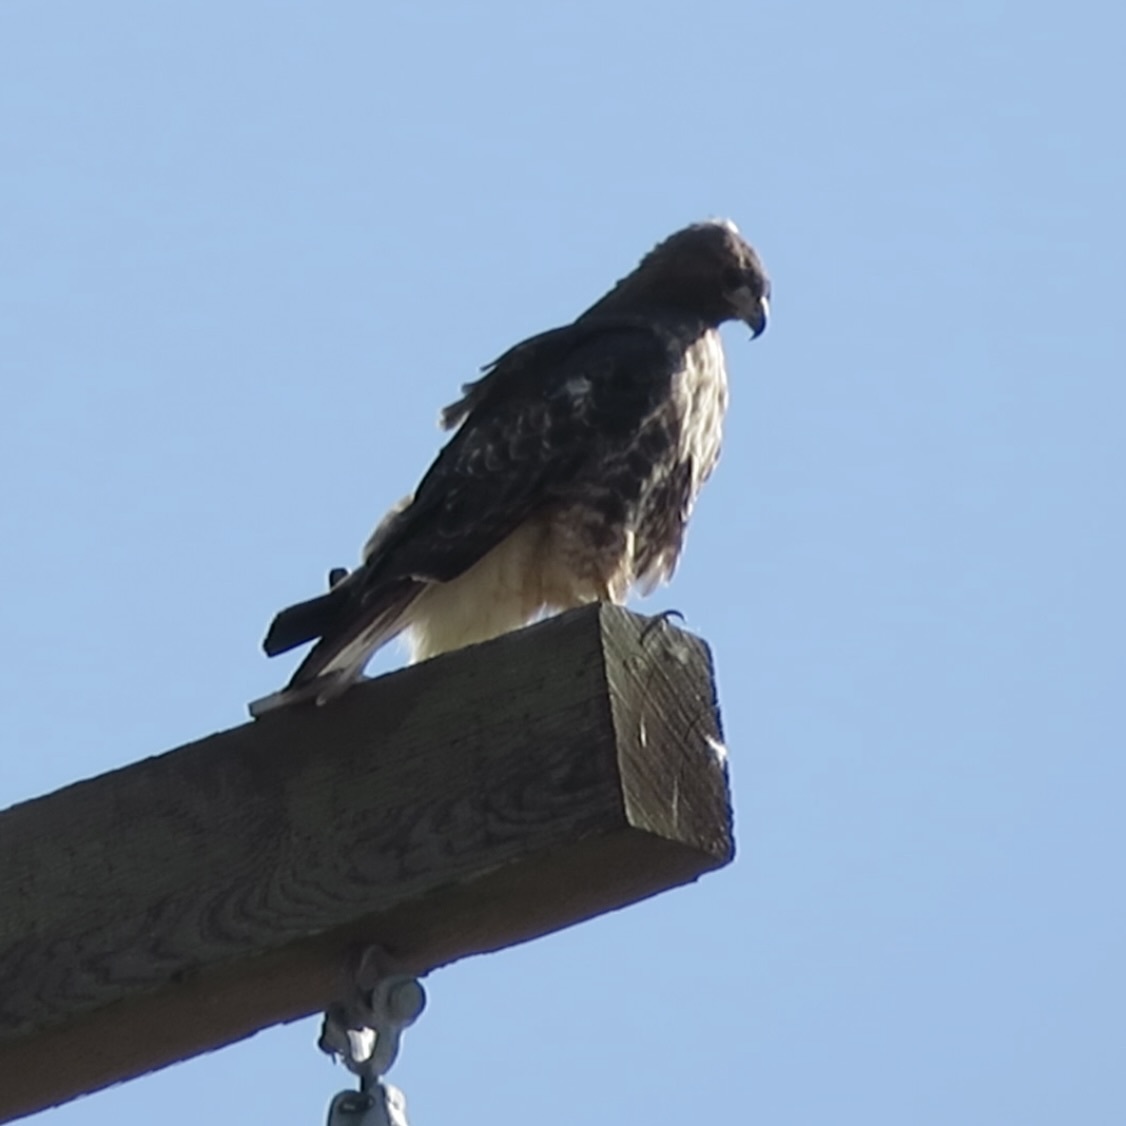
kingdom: Animalia
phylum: Chordata
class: Aves
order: Accipitriformes
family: Accipitridae
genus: Buteo
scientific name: Buteo jamaicensis
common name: Red-tailed hawk
